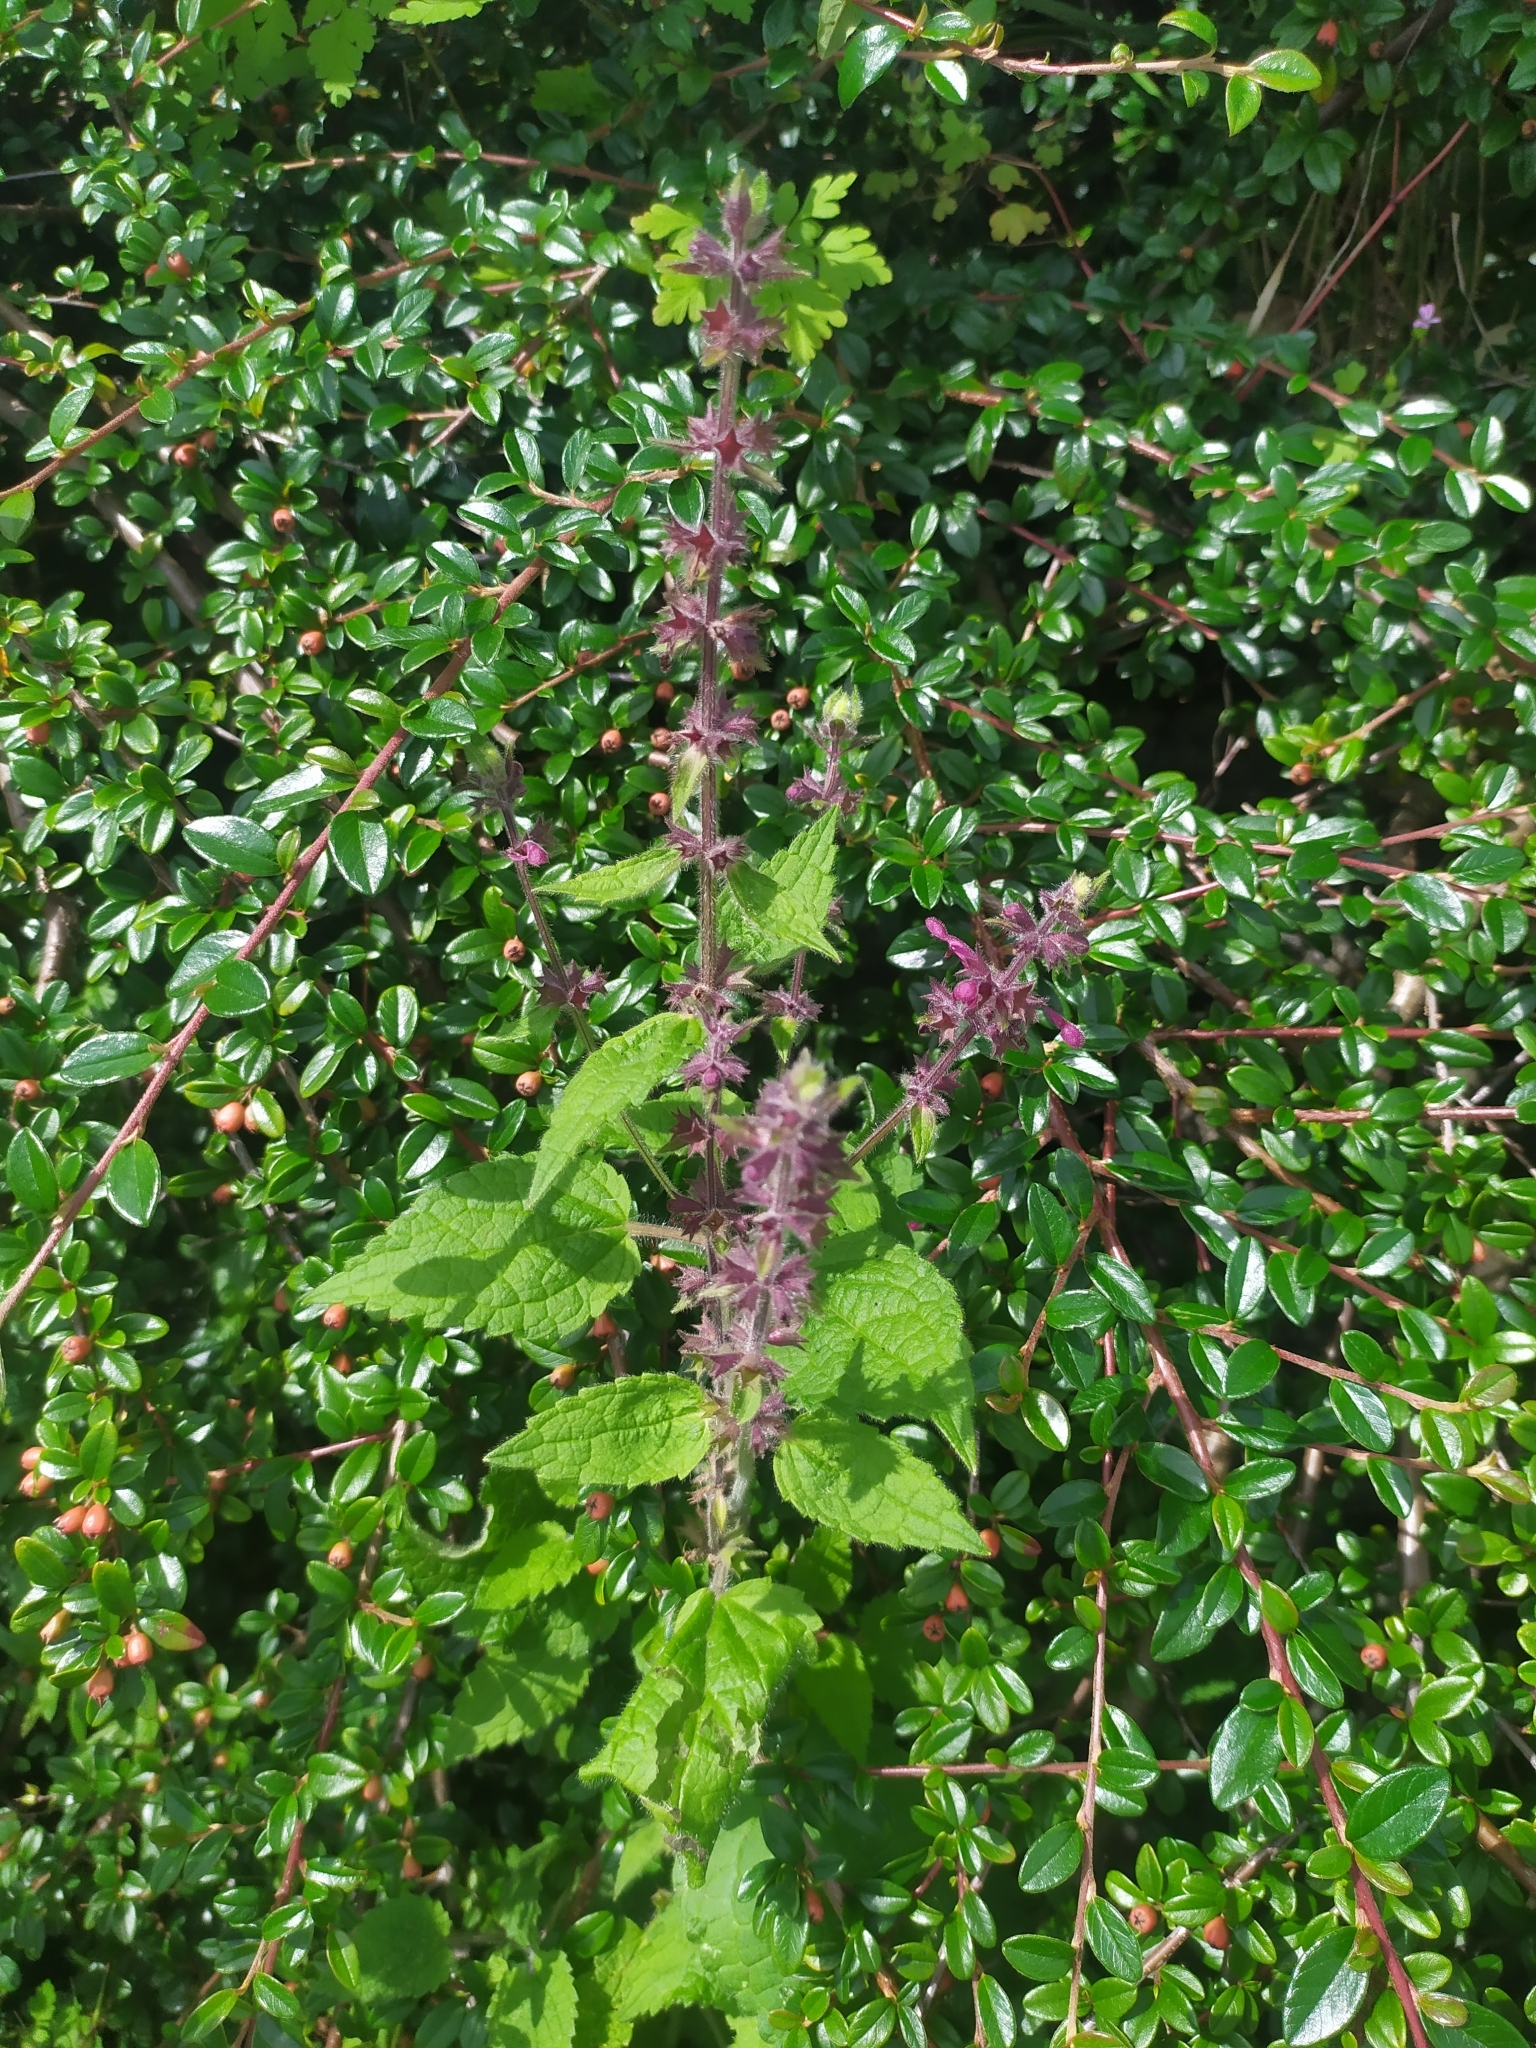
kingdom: Plantae
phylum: Tracheophyta
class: Magnoliopsida
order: Lamiales
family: Lamiaceae
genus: Stachys
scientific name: Stachys sylvatica
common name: Hedge woundwort
